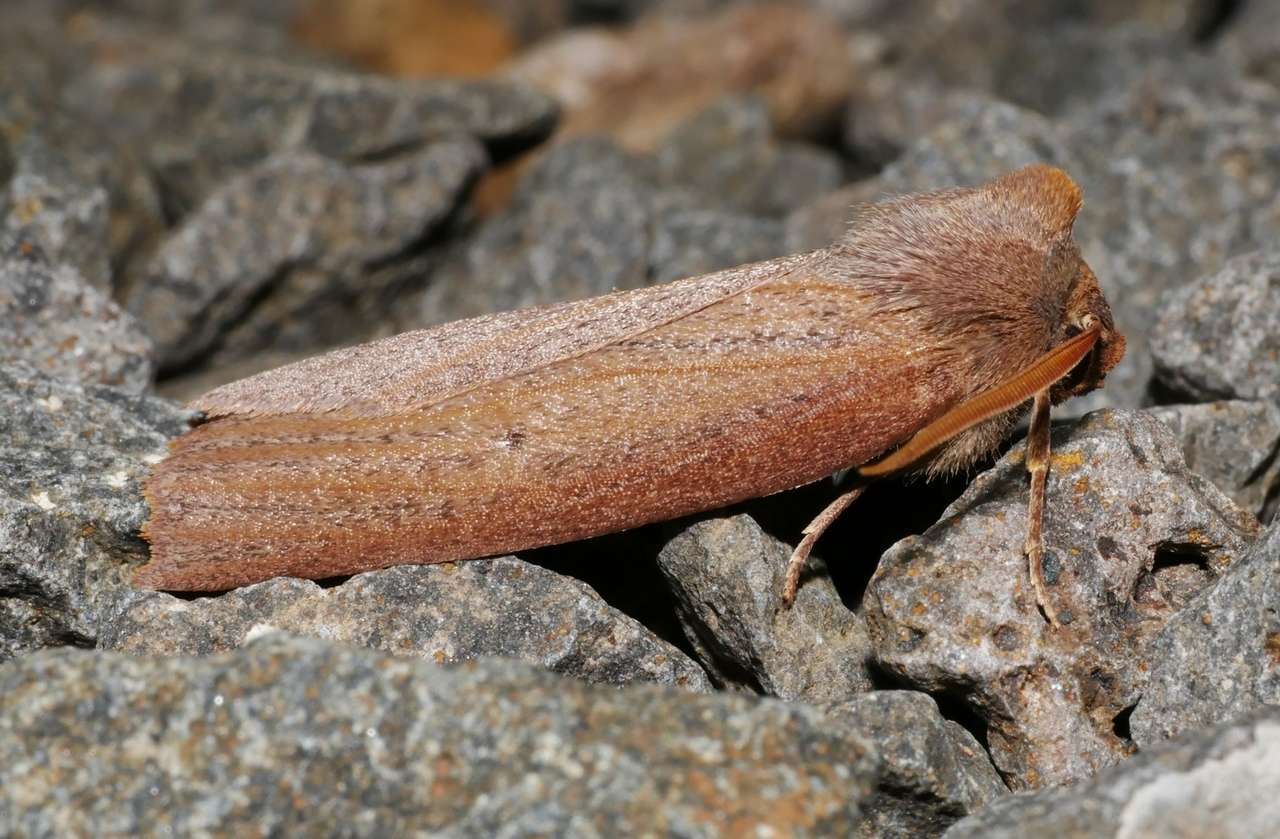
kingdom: Animalia
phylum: Arthropoda
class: Insecta
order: Lepidoptera
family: Geometridae
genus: Paralaea
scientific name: Paralaea porphyrinaria
